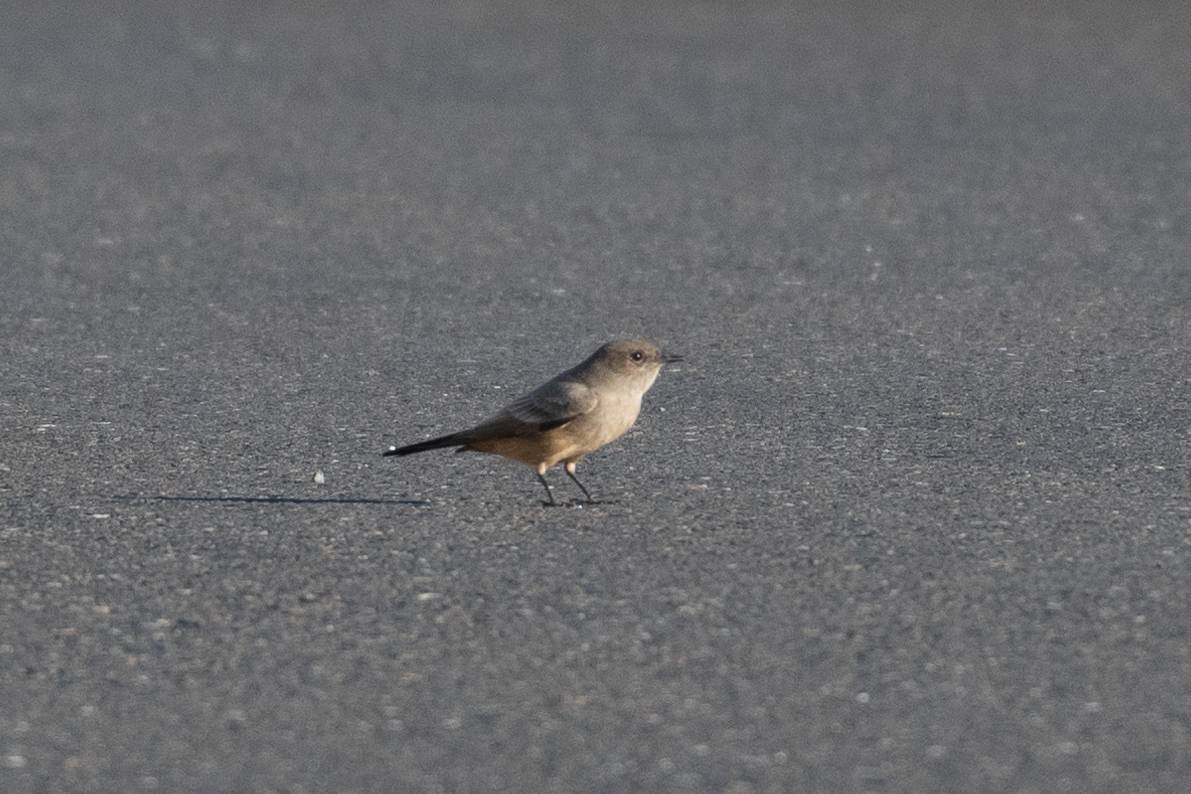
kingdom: Animalia
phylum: Chordata
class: Aves
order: Passeriformes
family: Tyrannidae
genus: Sayornis
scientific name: Sayornis saya
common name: Say's phoebe
